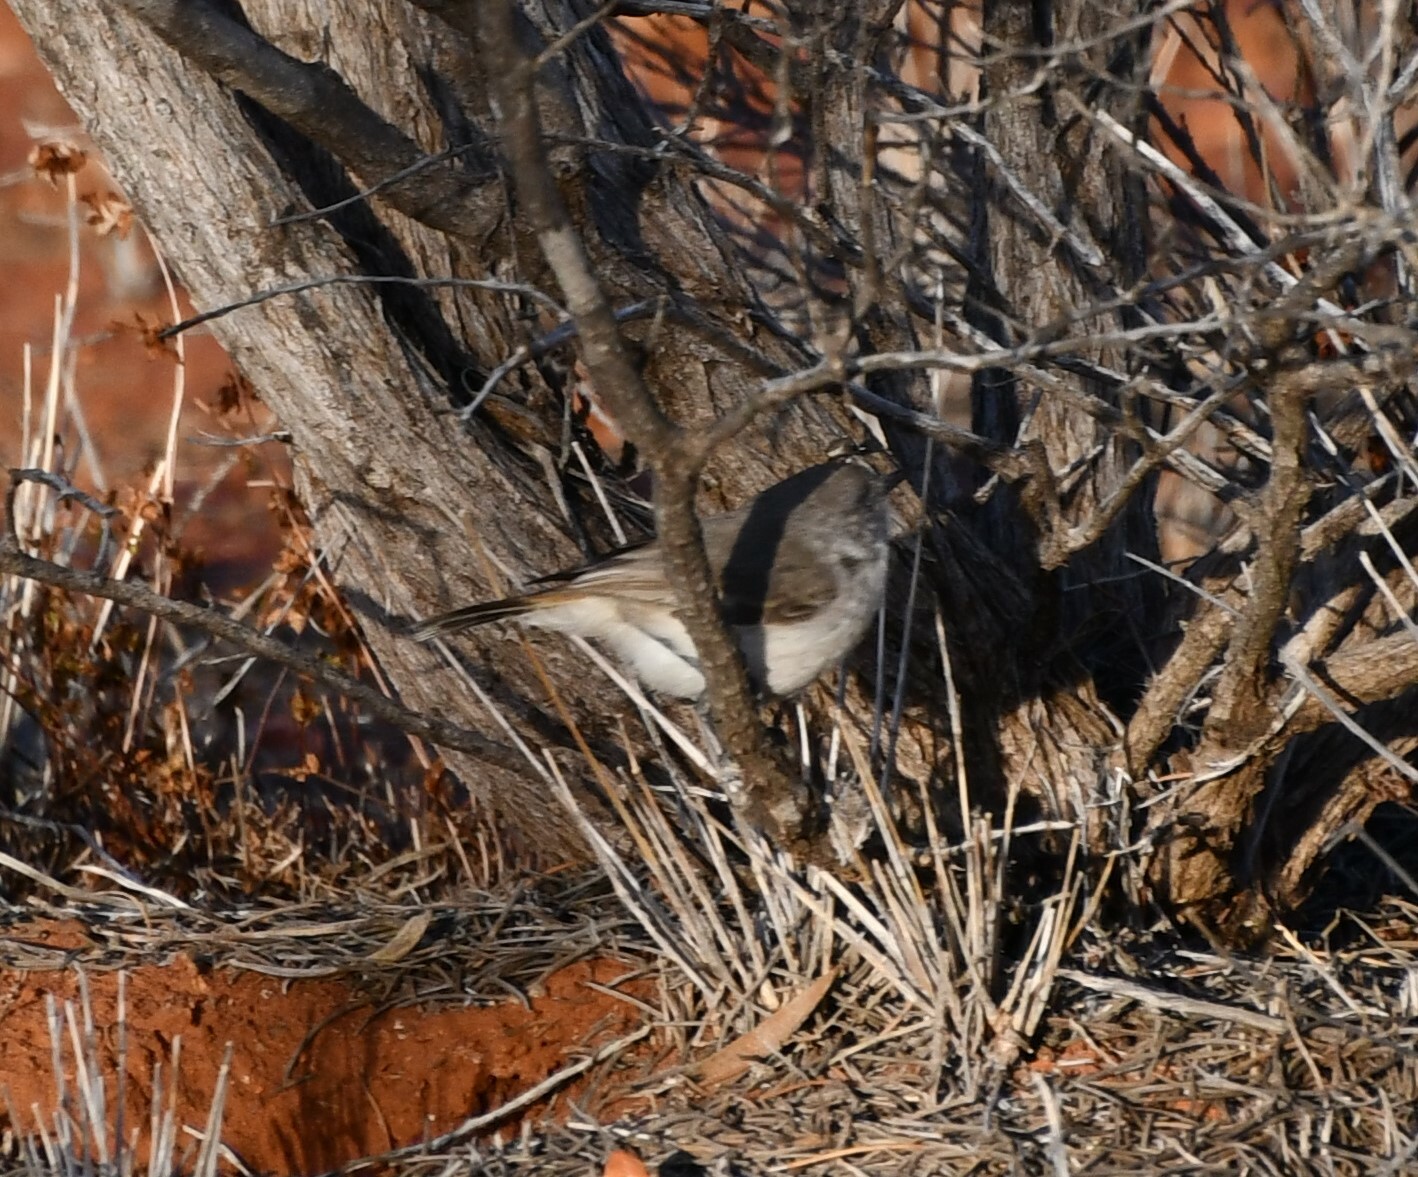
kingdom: Animalia
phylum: Chordata
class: Aves
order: Passeriformes
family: Acanthizidae
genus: Acanthiza
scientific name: Acanthiza uropygialis
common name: Chestnut-rumped thornbill
